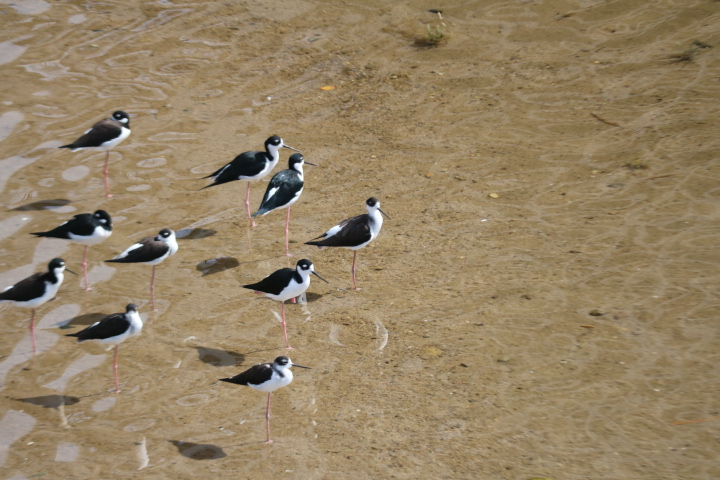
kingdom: Animalia
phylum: Chordata
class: Aves
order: Charadriiformes
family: Recurvirostridae
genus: Himantopus
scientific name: Himantopus mexicanus
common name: Black-necked stilt
